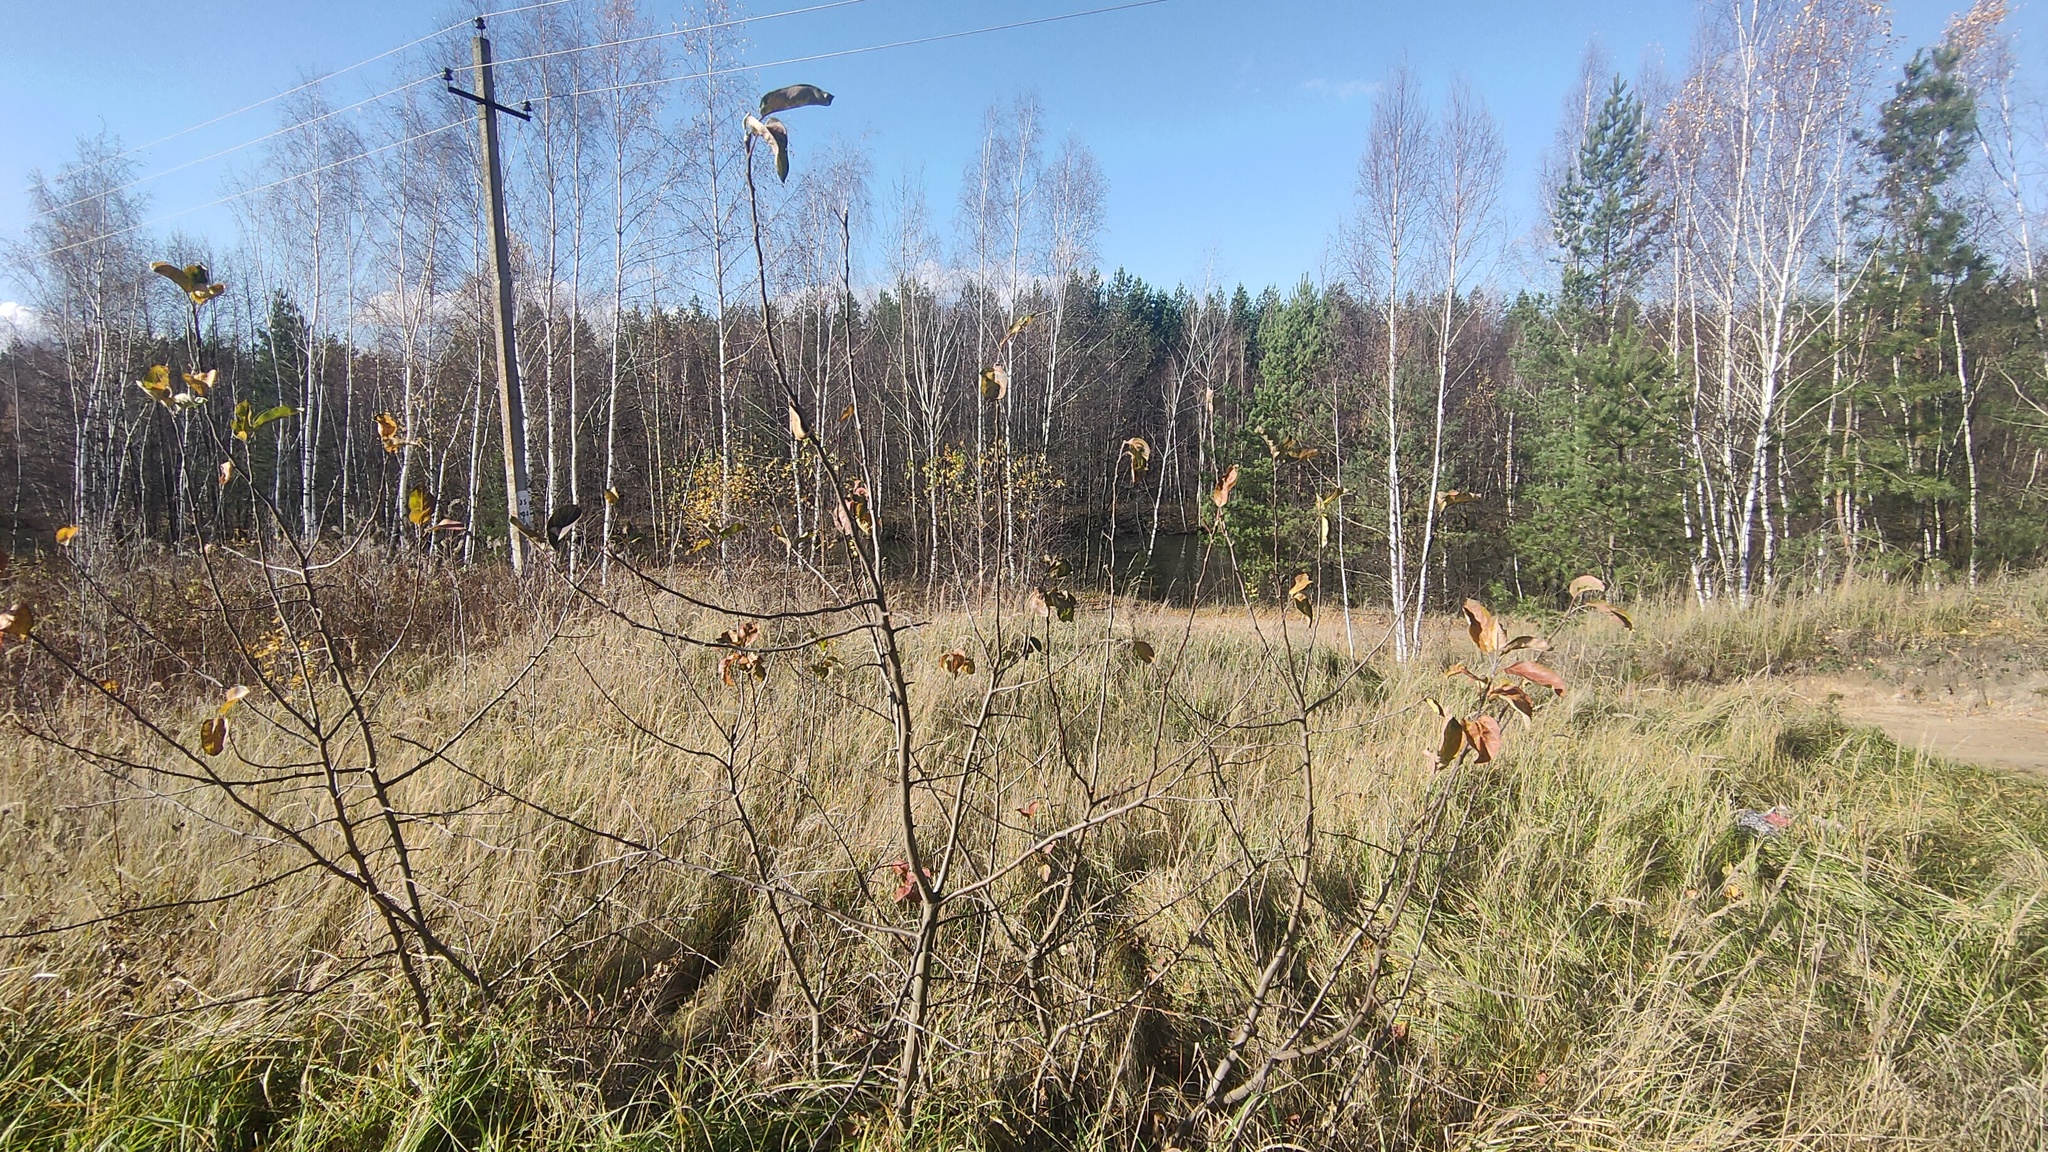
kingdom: Plantae
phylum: Tracheophyta
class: Magnoliopsida
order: Rosales
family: Rosaceae
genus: Sorbaronia
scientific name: Sorbaronia arsenii
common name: Arsène's mountain-ash
